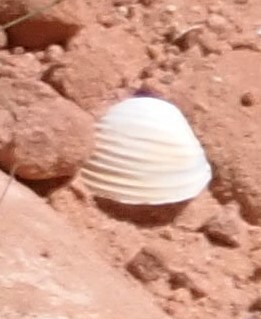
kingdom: Animalia
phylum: Mollusca
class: Bivalvia
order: Venerida
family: Cyrenidae
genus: Corbicula
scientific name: Corbicula fluminea
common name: Asian clam
